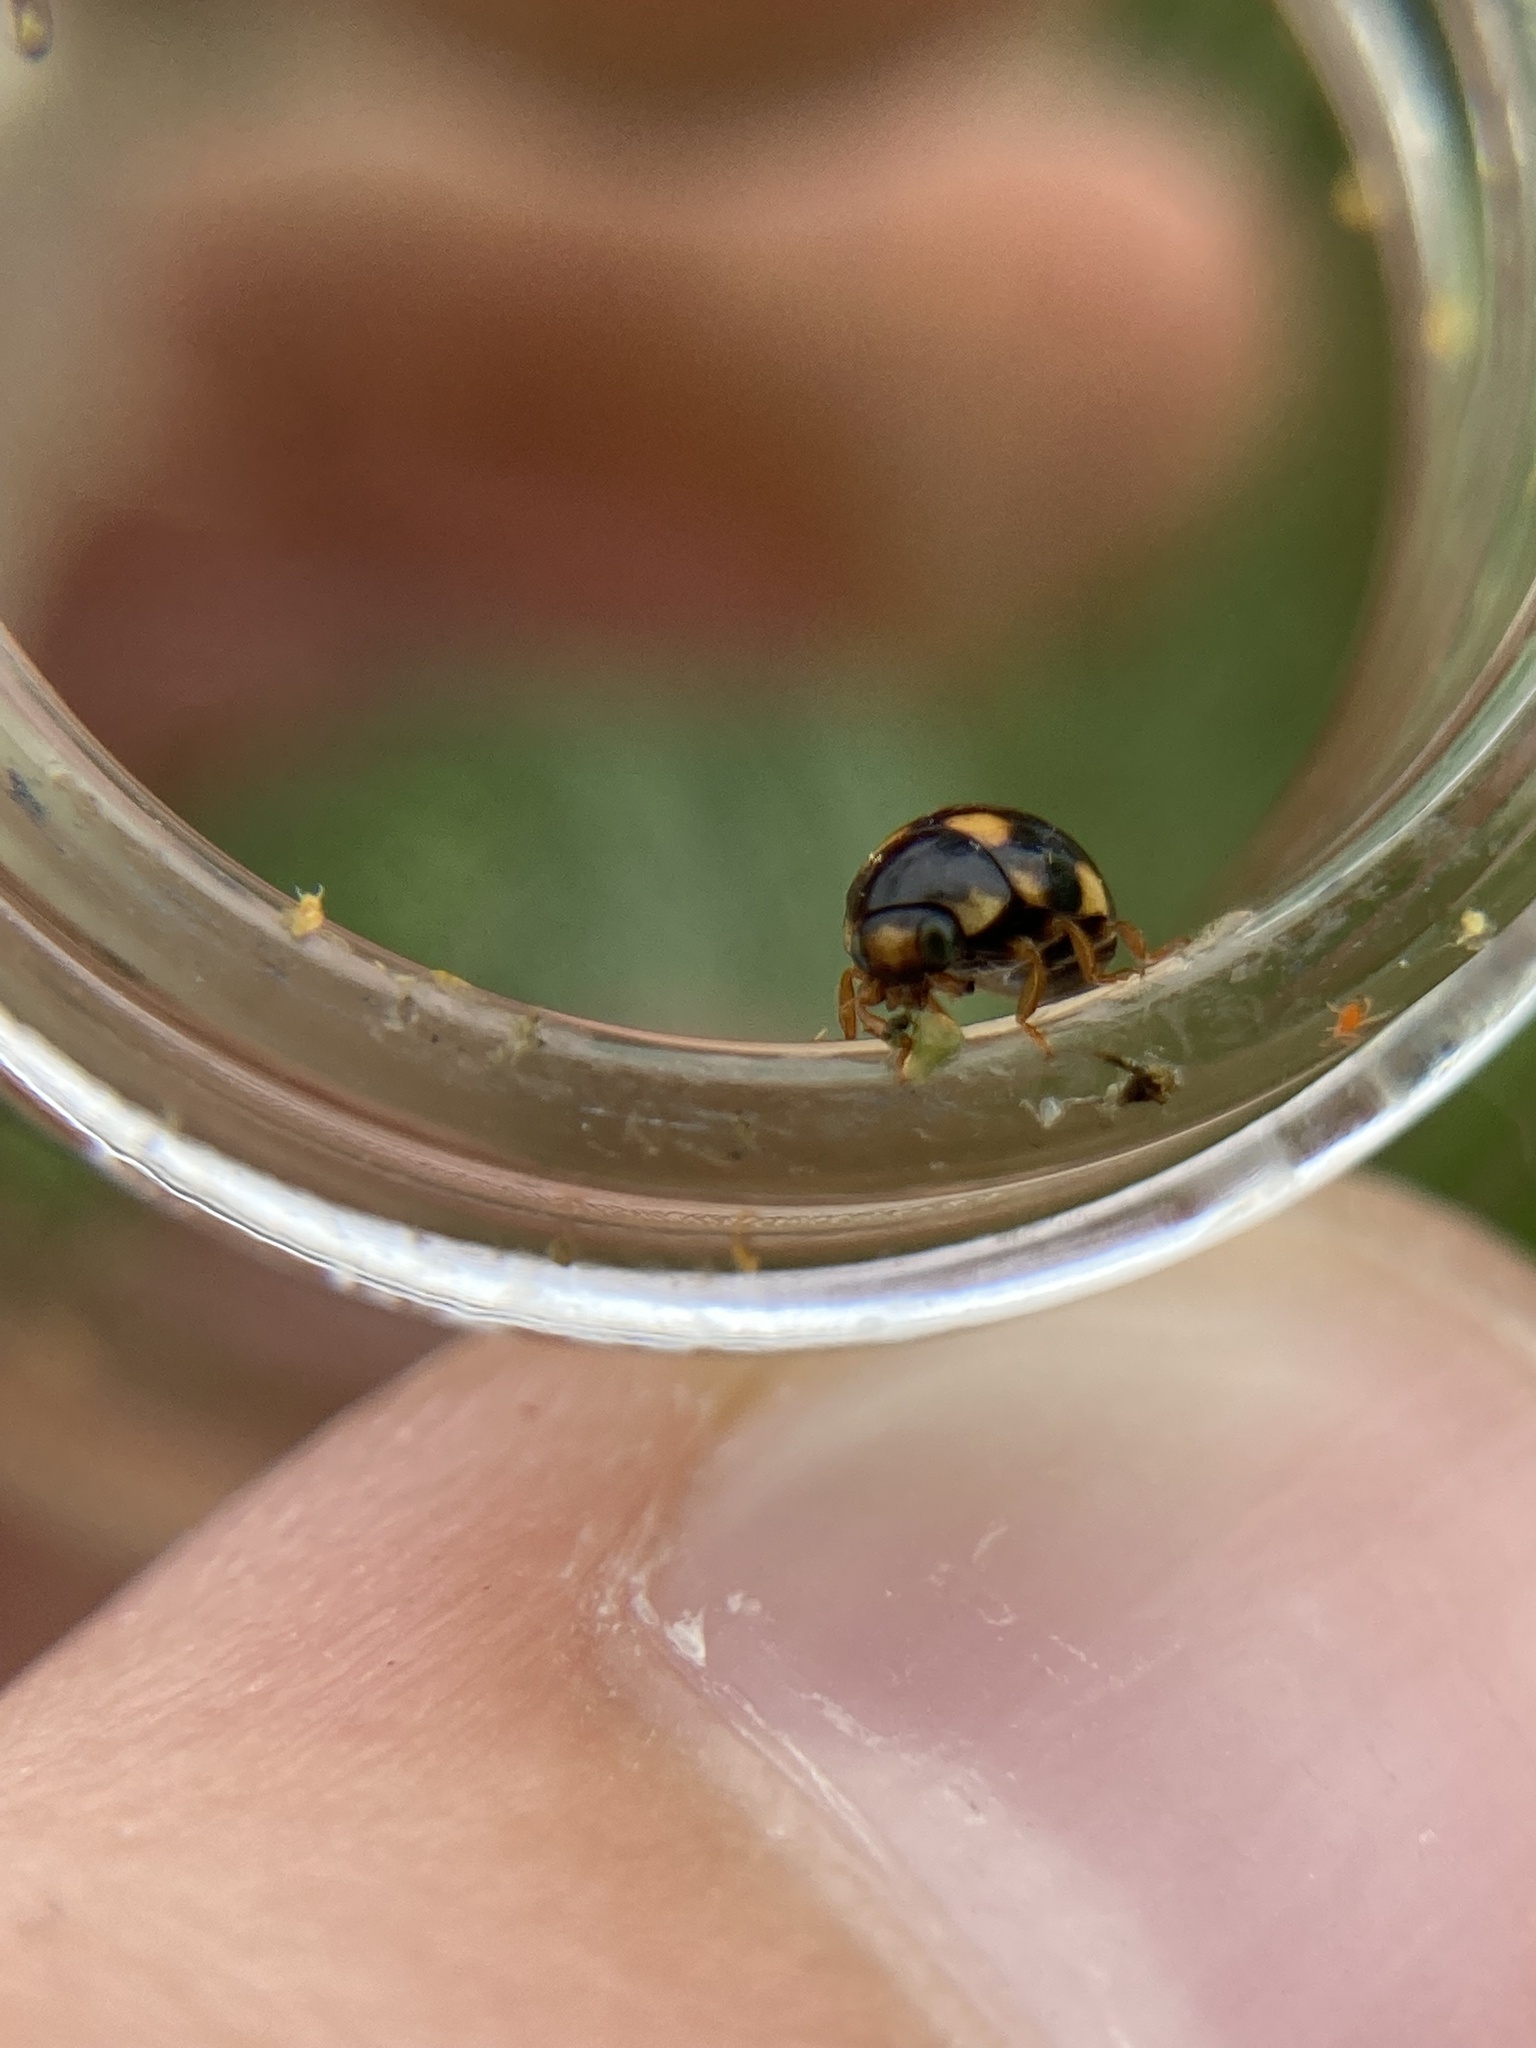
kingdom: Animalia
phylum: Arthropoda
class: Insecta
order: Coleoptera
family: Coccinellidae
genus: Brachiacantha
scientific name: Brachiacantha ursina
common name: Ursine spurleg lady beetle
